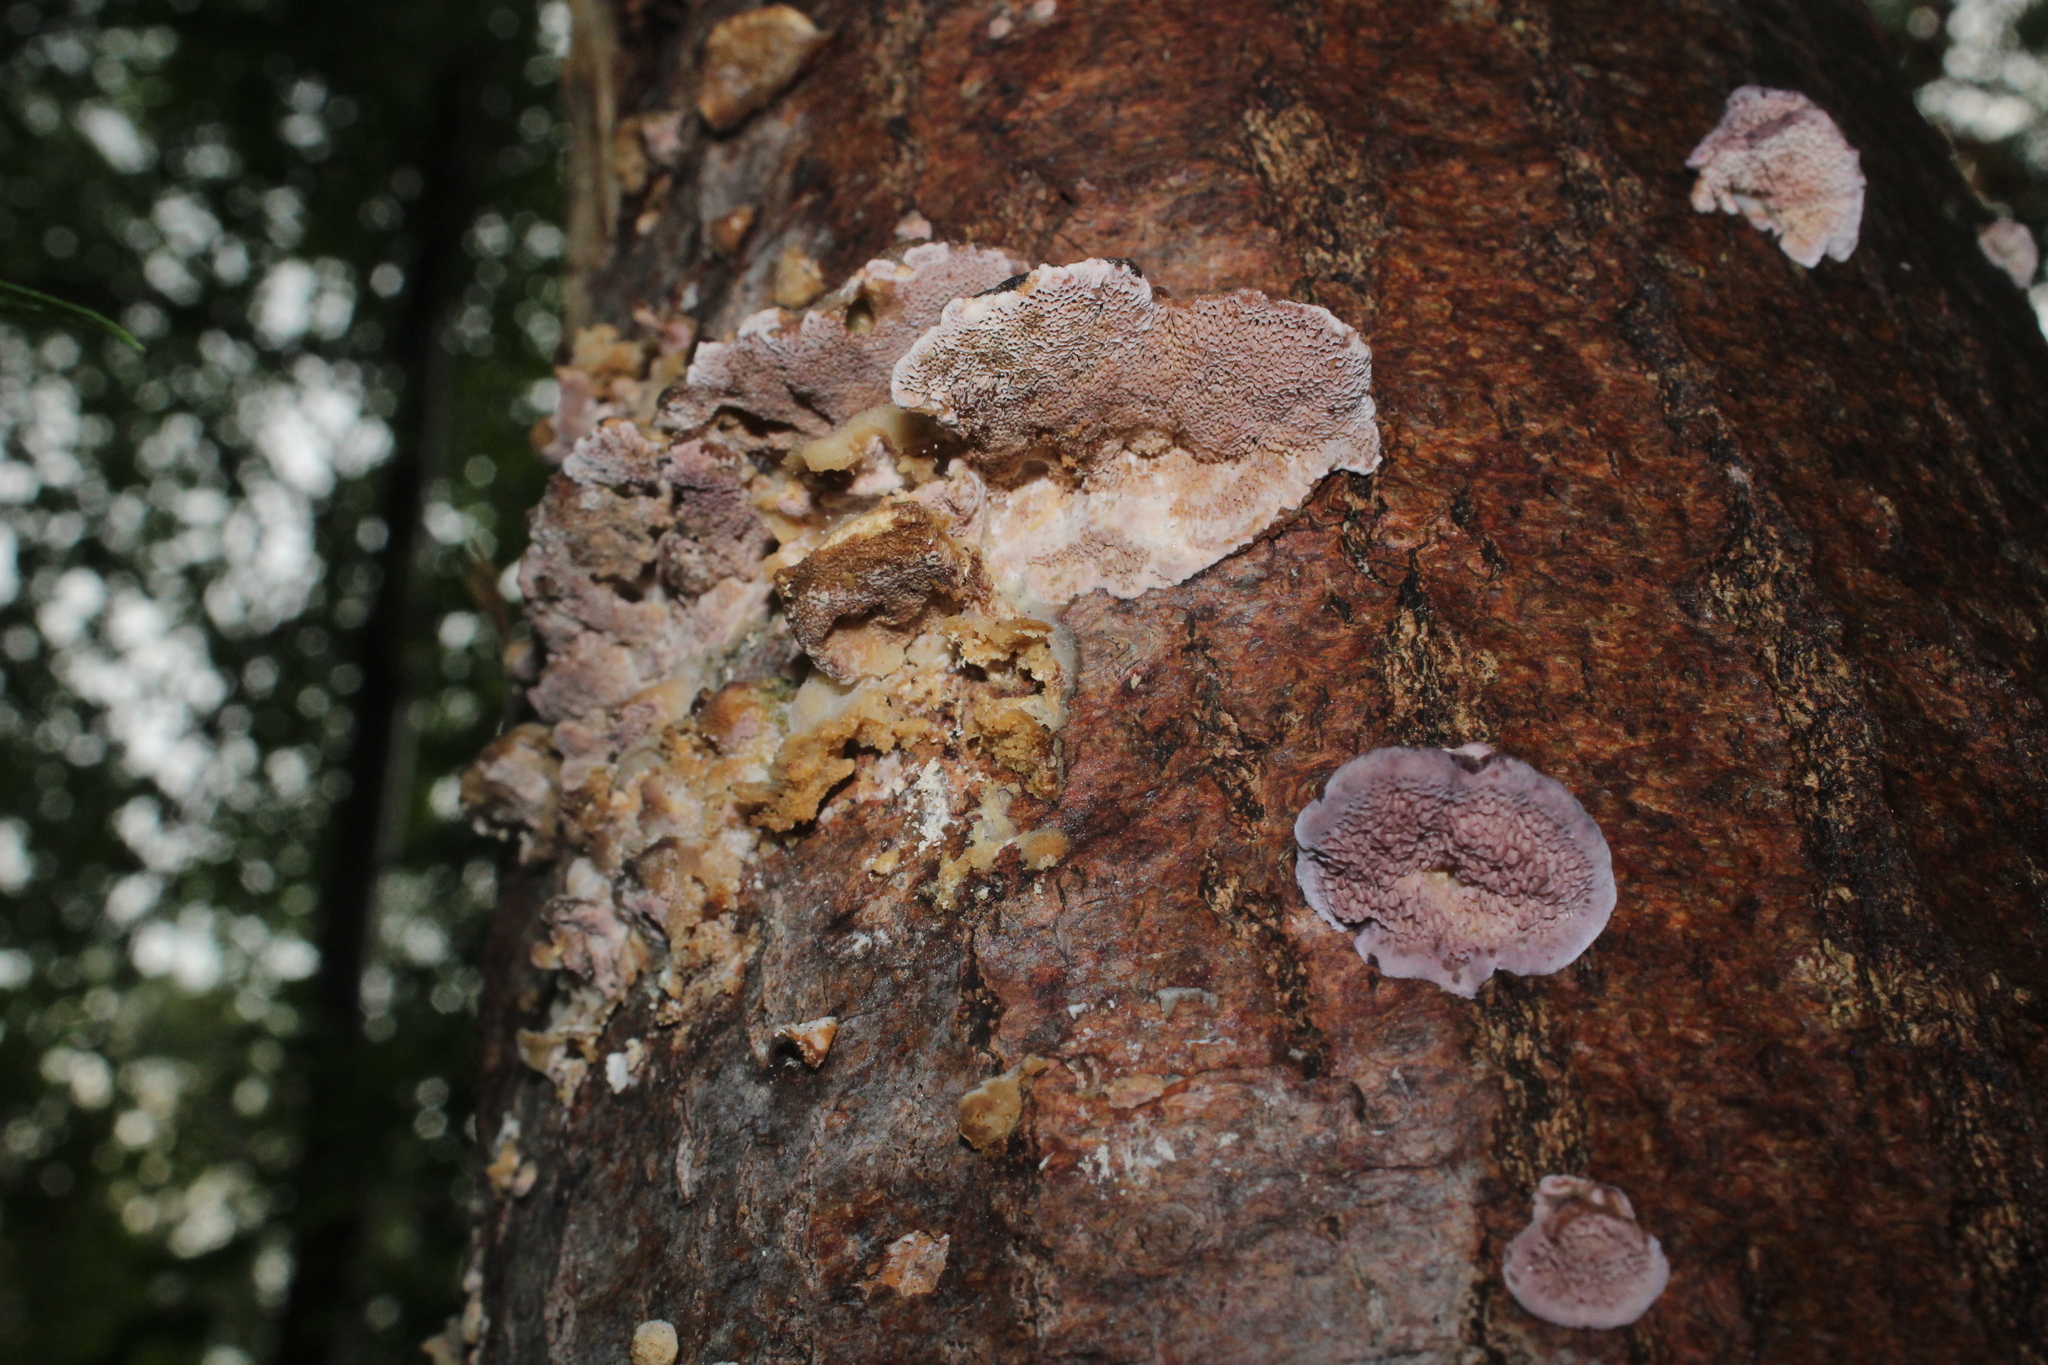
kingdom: Fungi
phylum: Basidiomycota
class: Agaricomycetes
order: Hymenochaetales
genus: Trichaptum
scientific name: Trichaptum biforme
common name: Violet-toothed polypore
